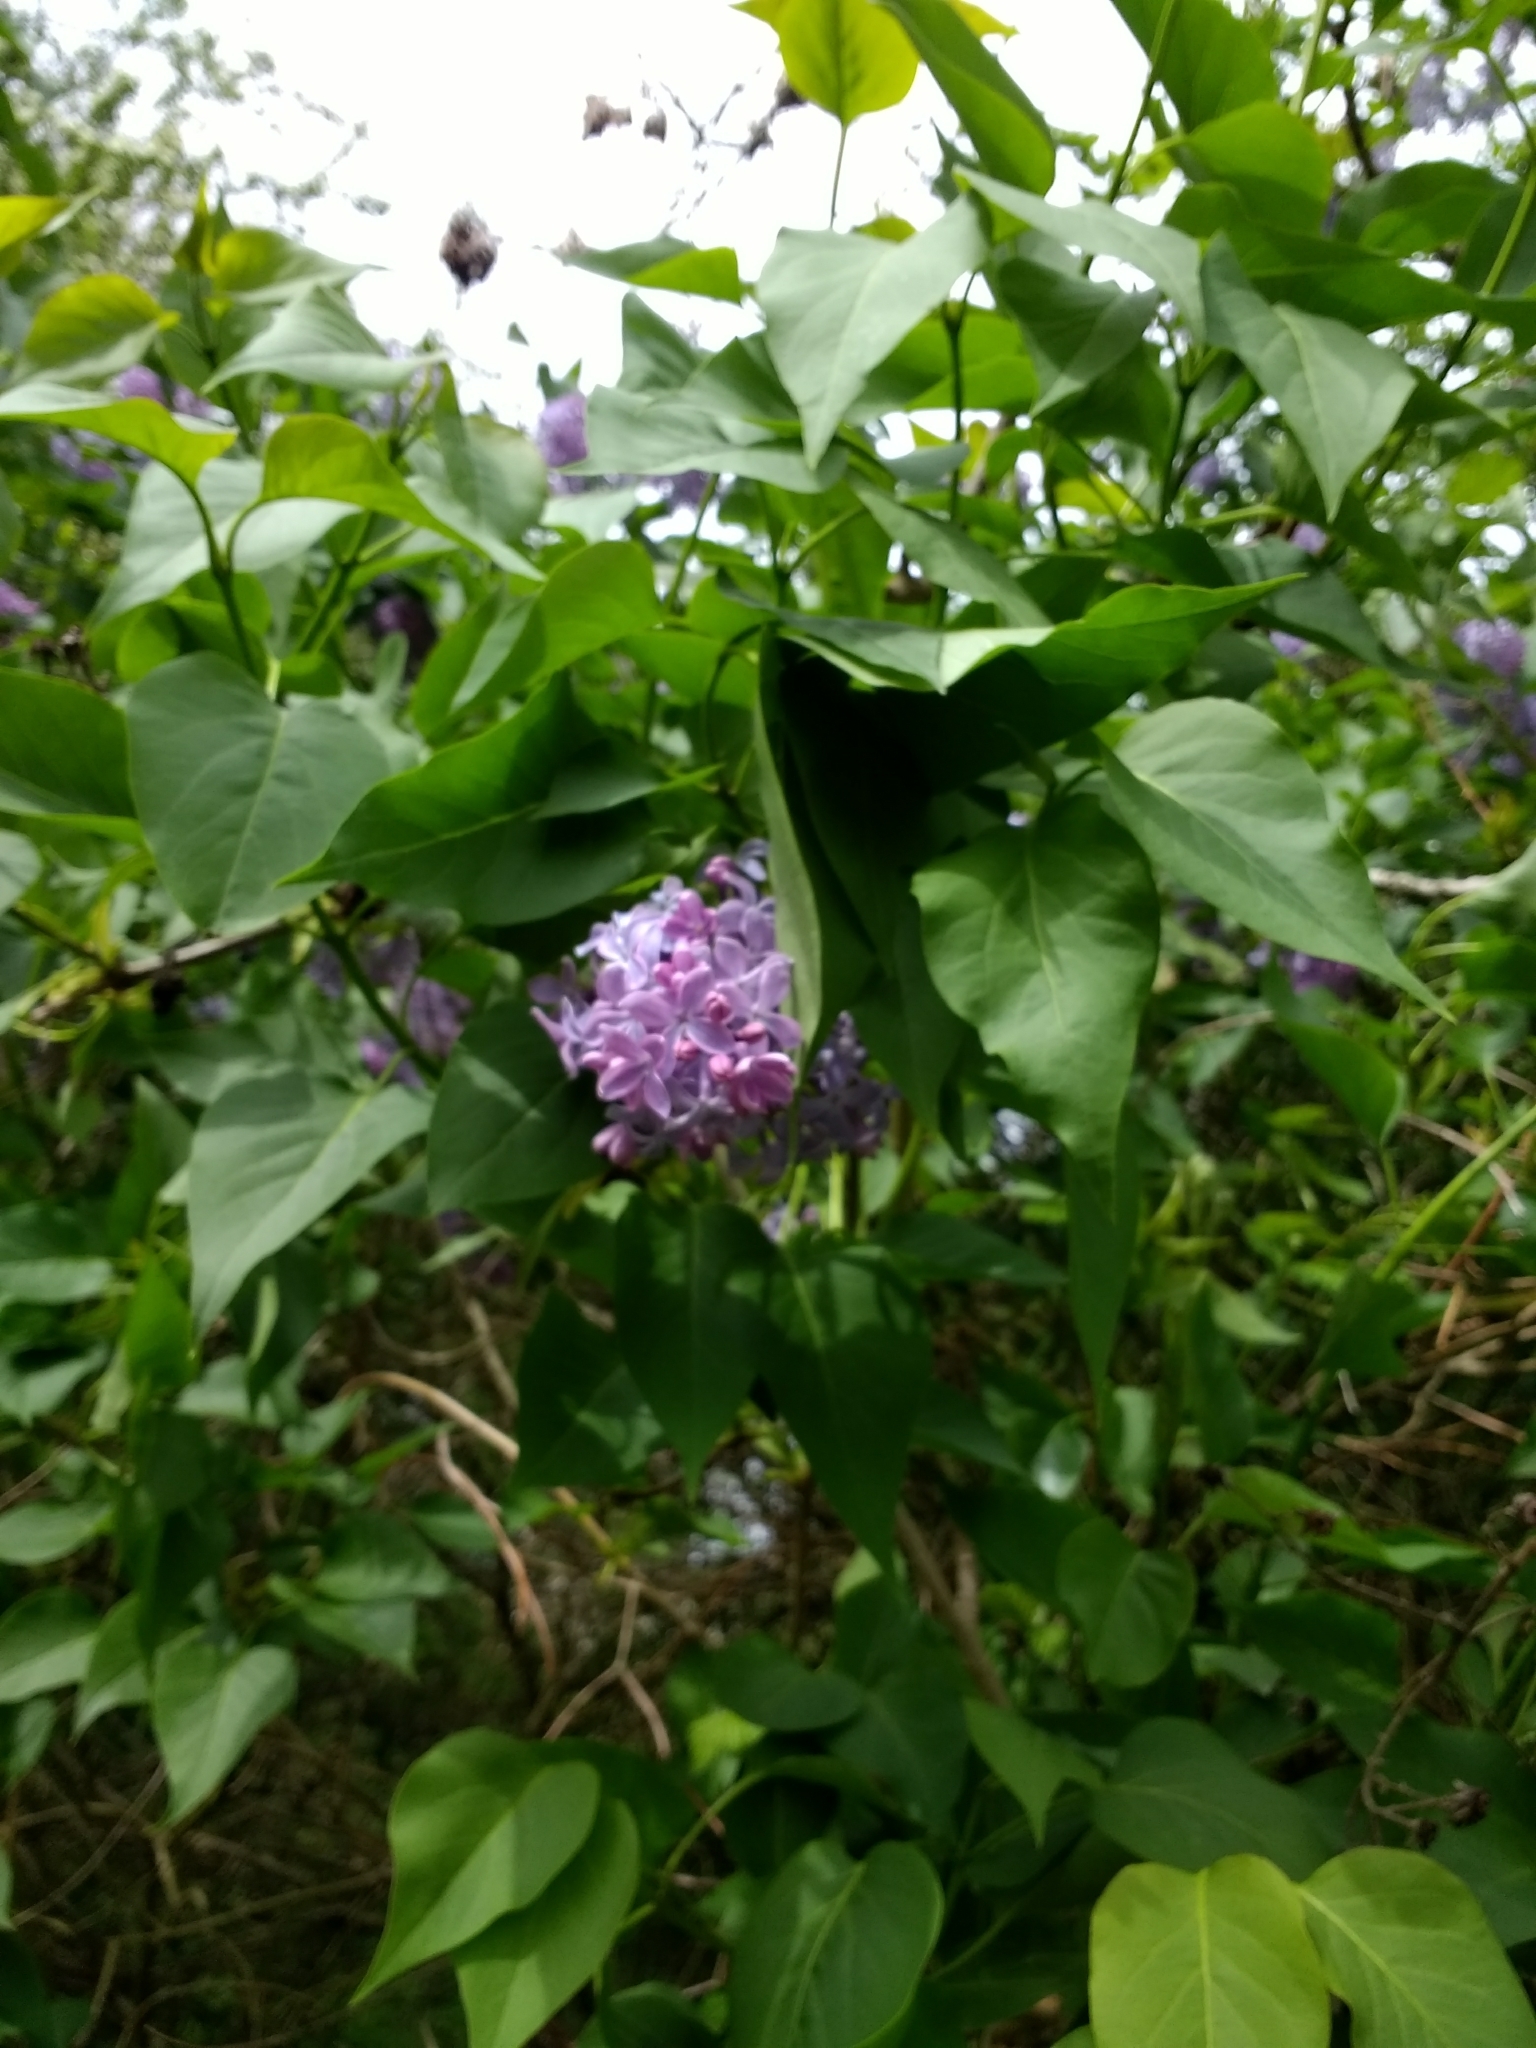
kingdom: Plantae
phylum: Tracheophyta
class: Magnoliopsida
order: Lamiales
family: Oleaceae
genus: Syringa
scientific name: Syringa vulgaris
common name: Common lilac
